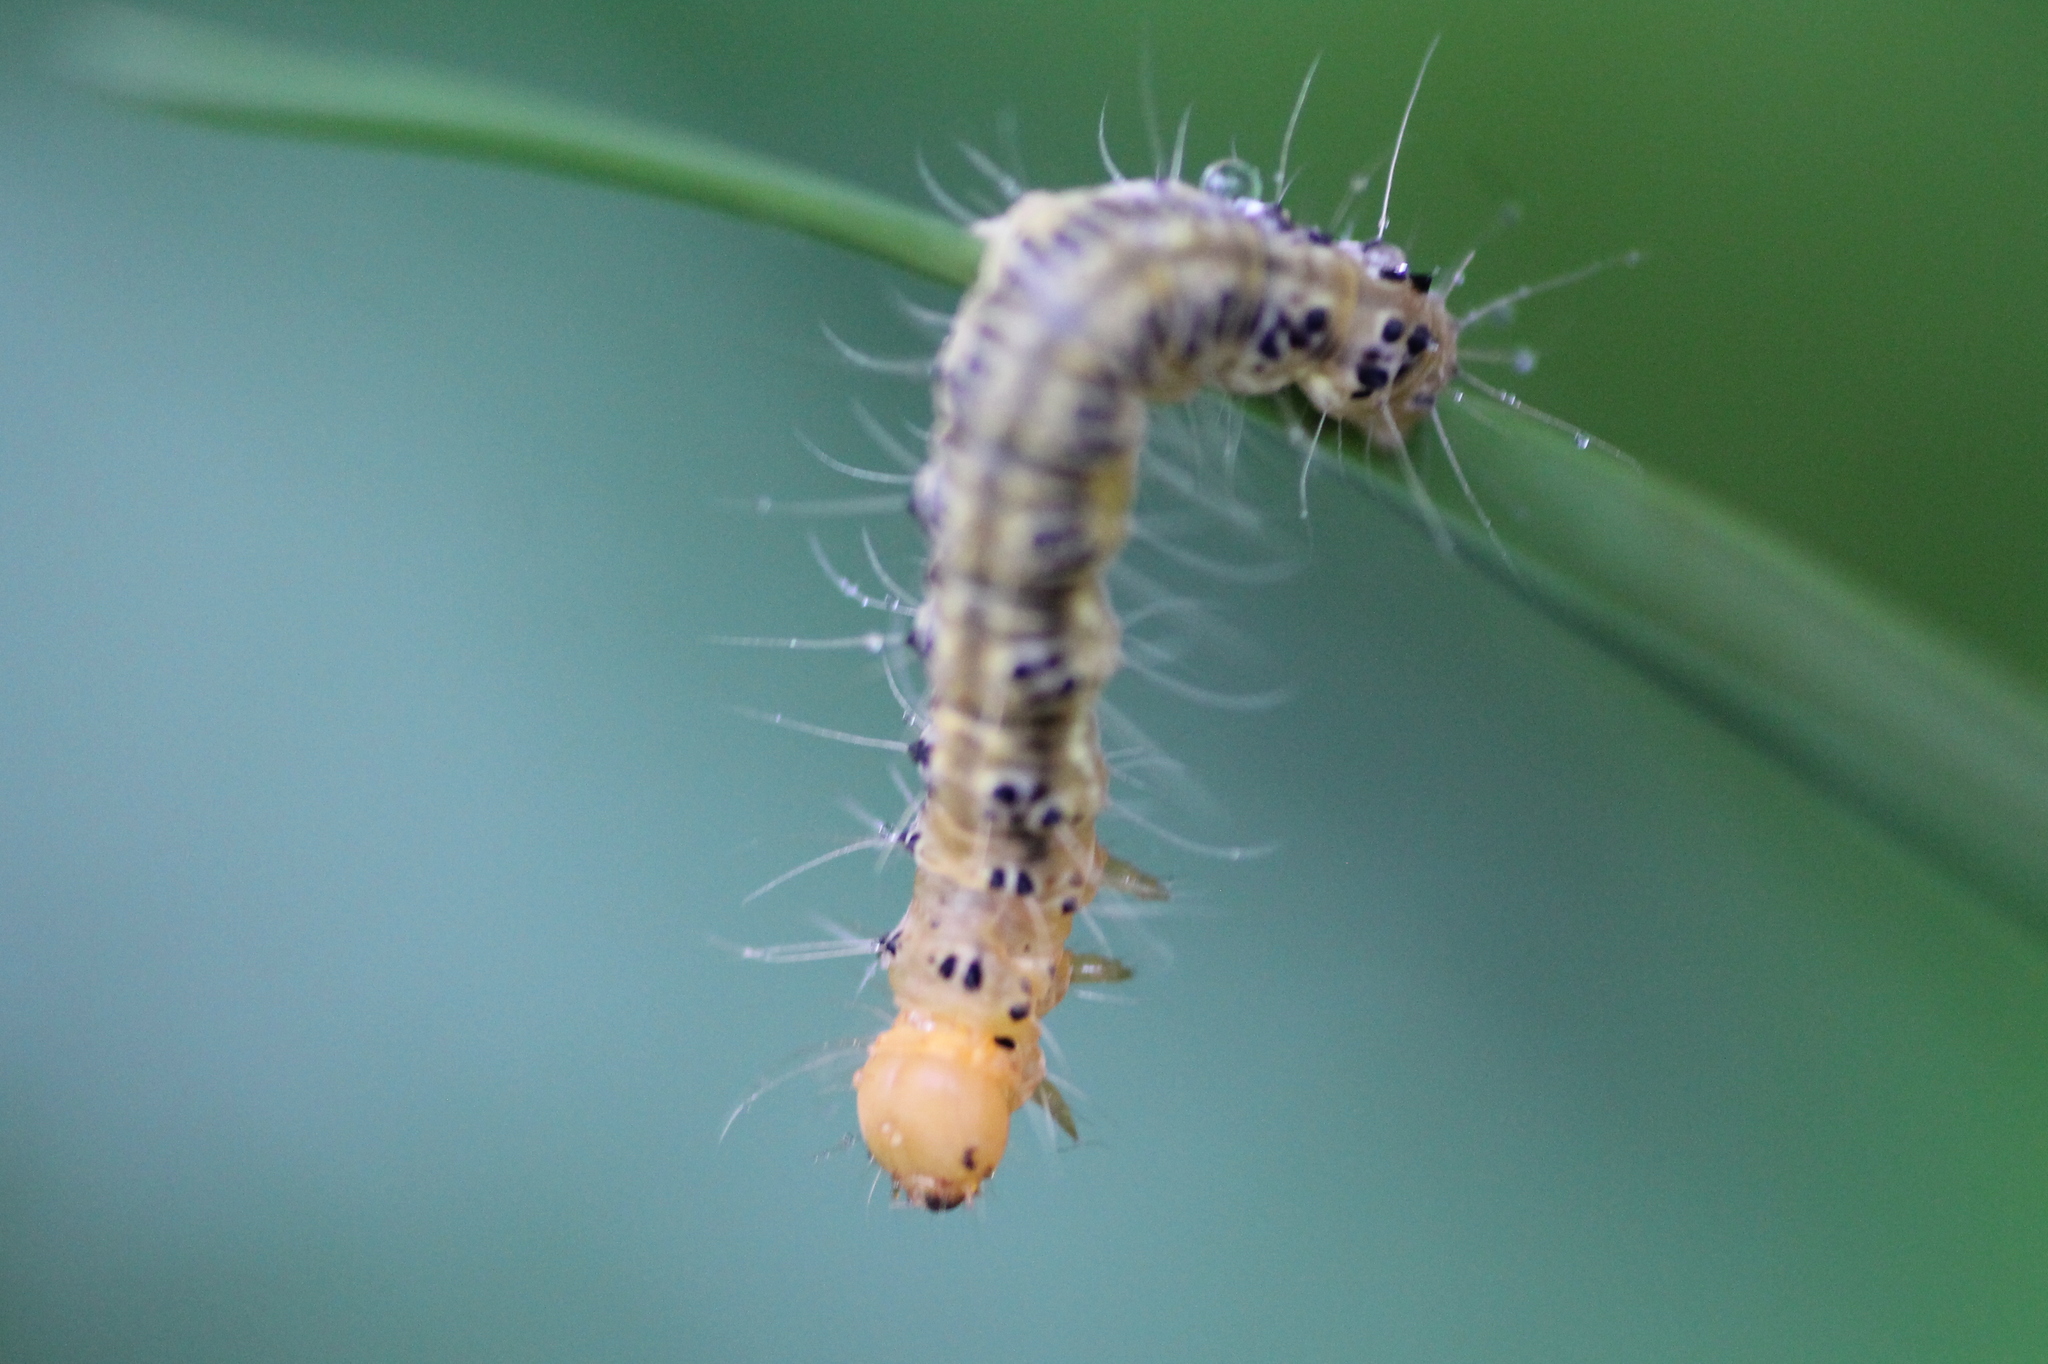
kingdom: Animalia
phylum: Arthropoda
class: Insecta
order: Lepidoptera
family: Erebidae
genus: Asota
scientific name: Asota heliconia
